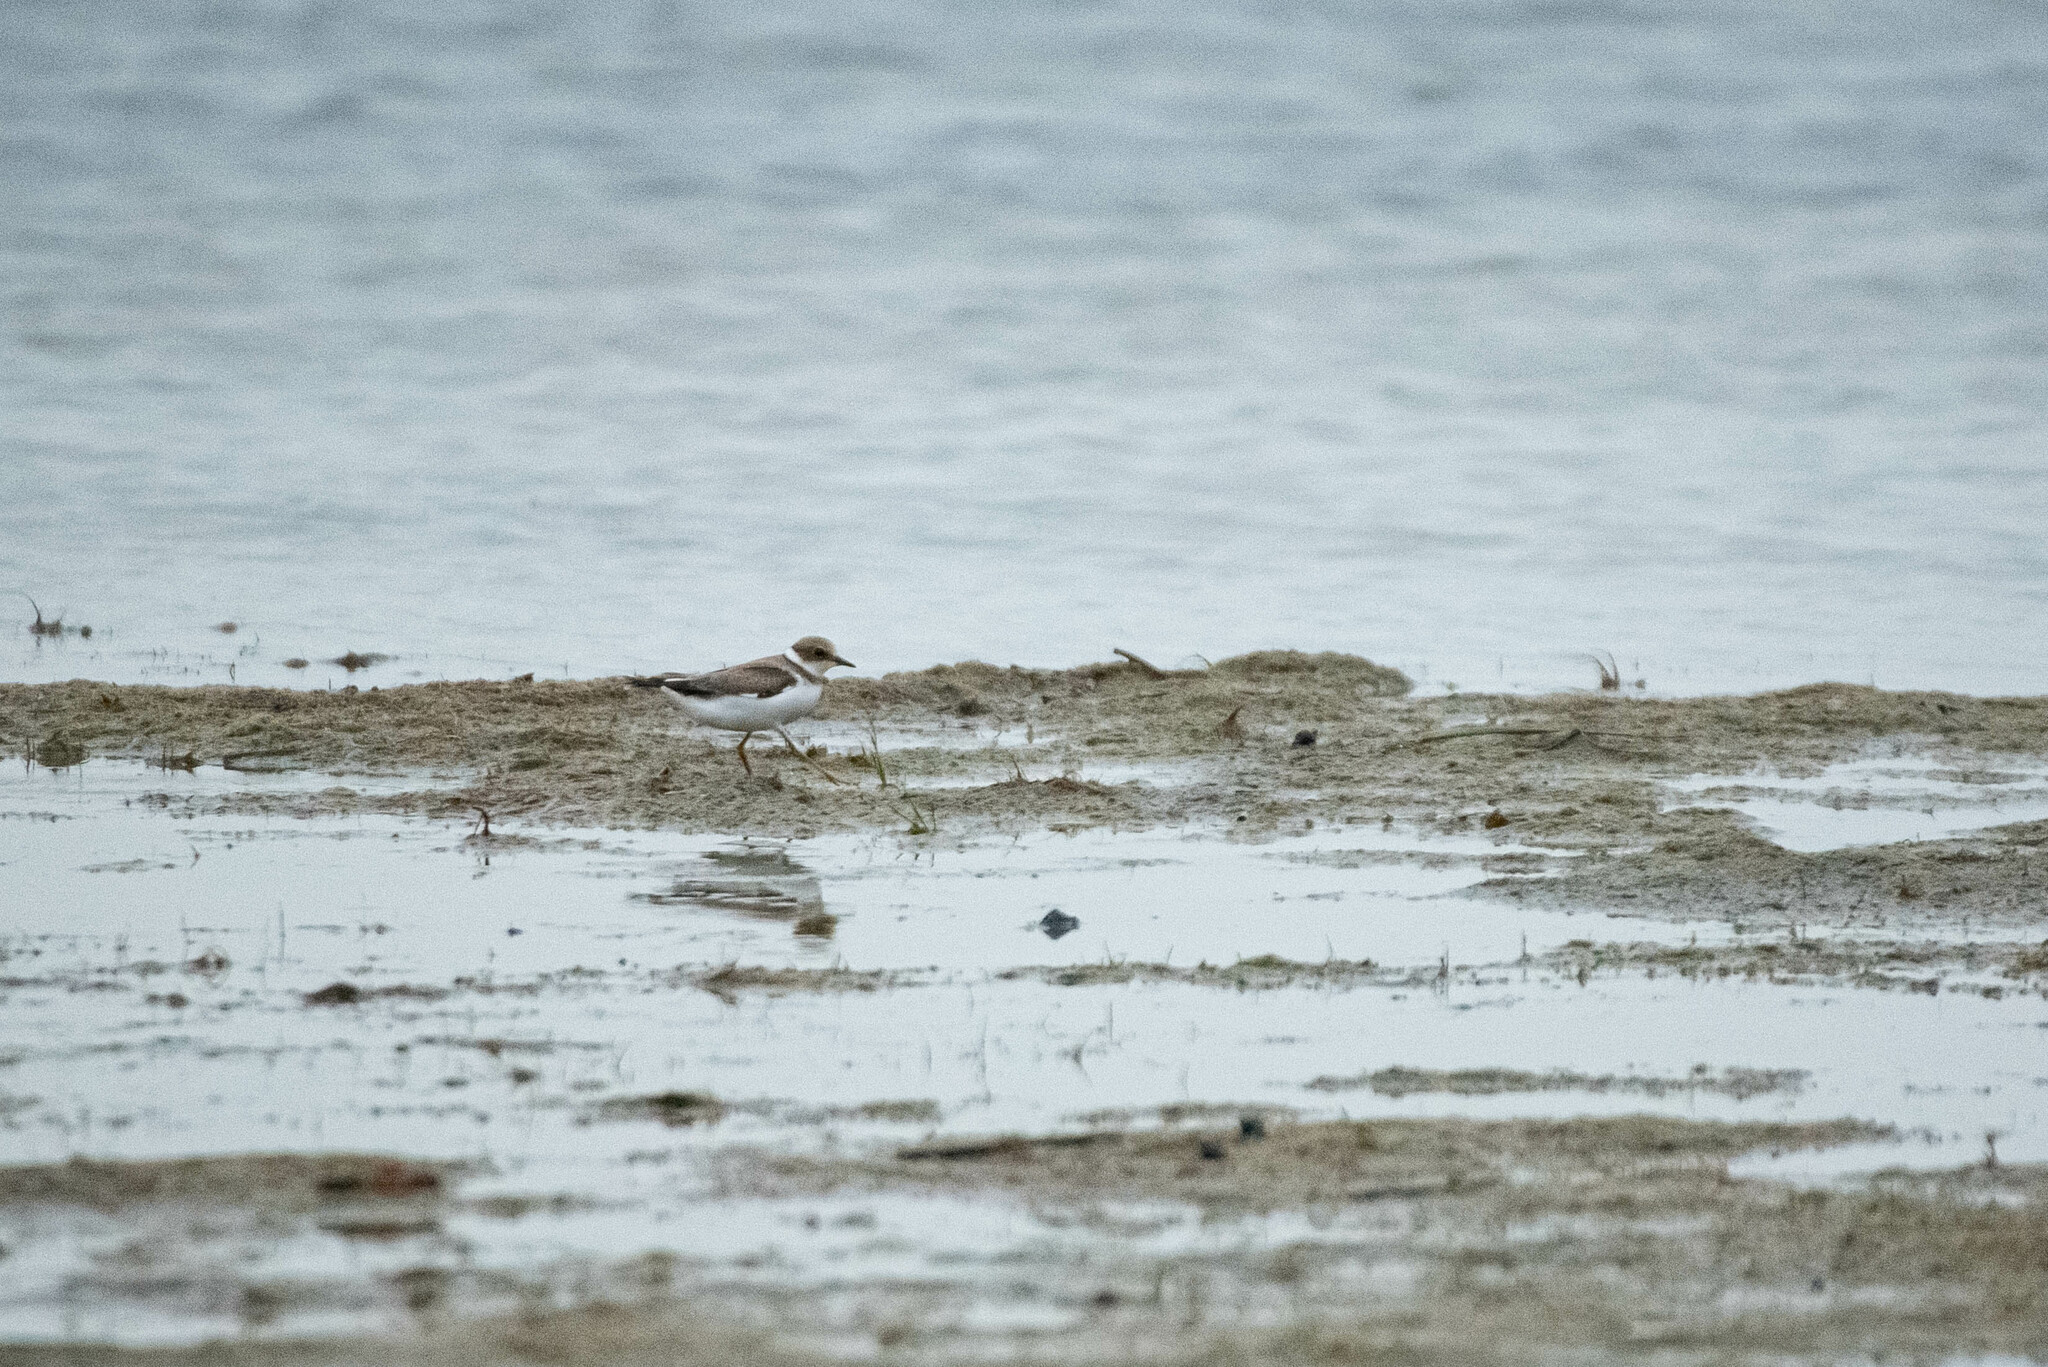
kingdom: Animalia
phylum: Chordata
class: Aves
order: Charadriiformes
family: Charadriidae
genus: Charadrius
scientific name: Charadrius dubius
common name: Little ringed plover
